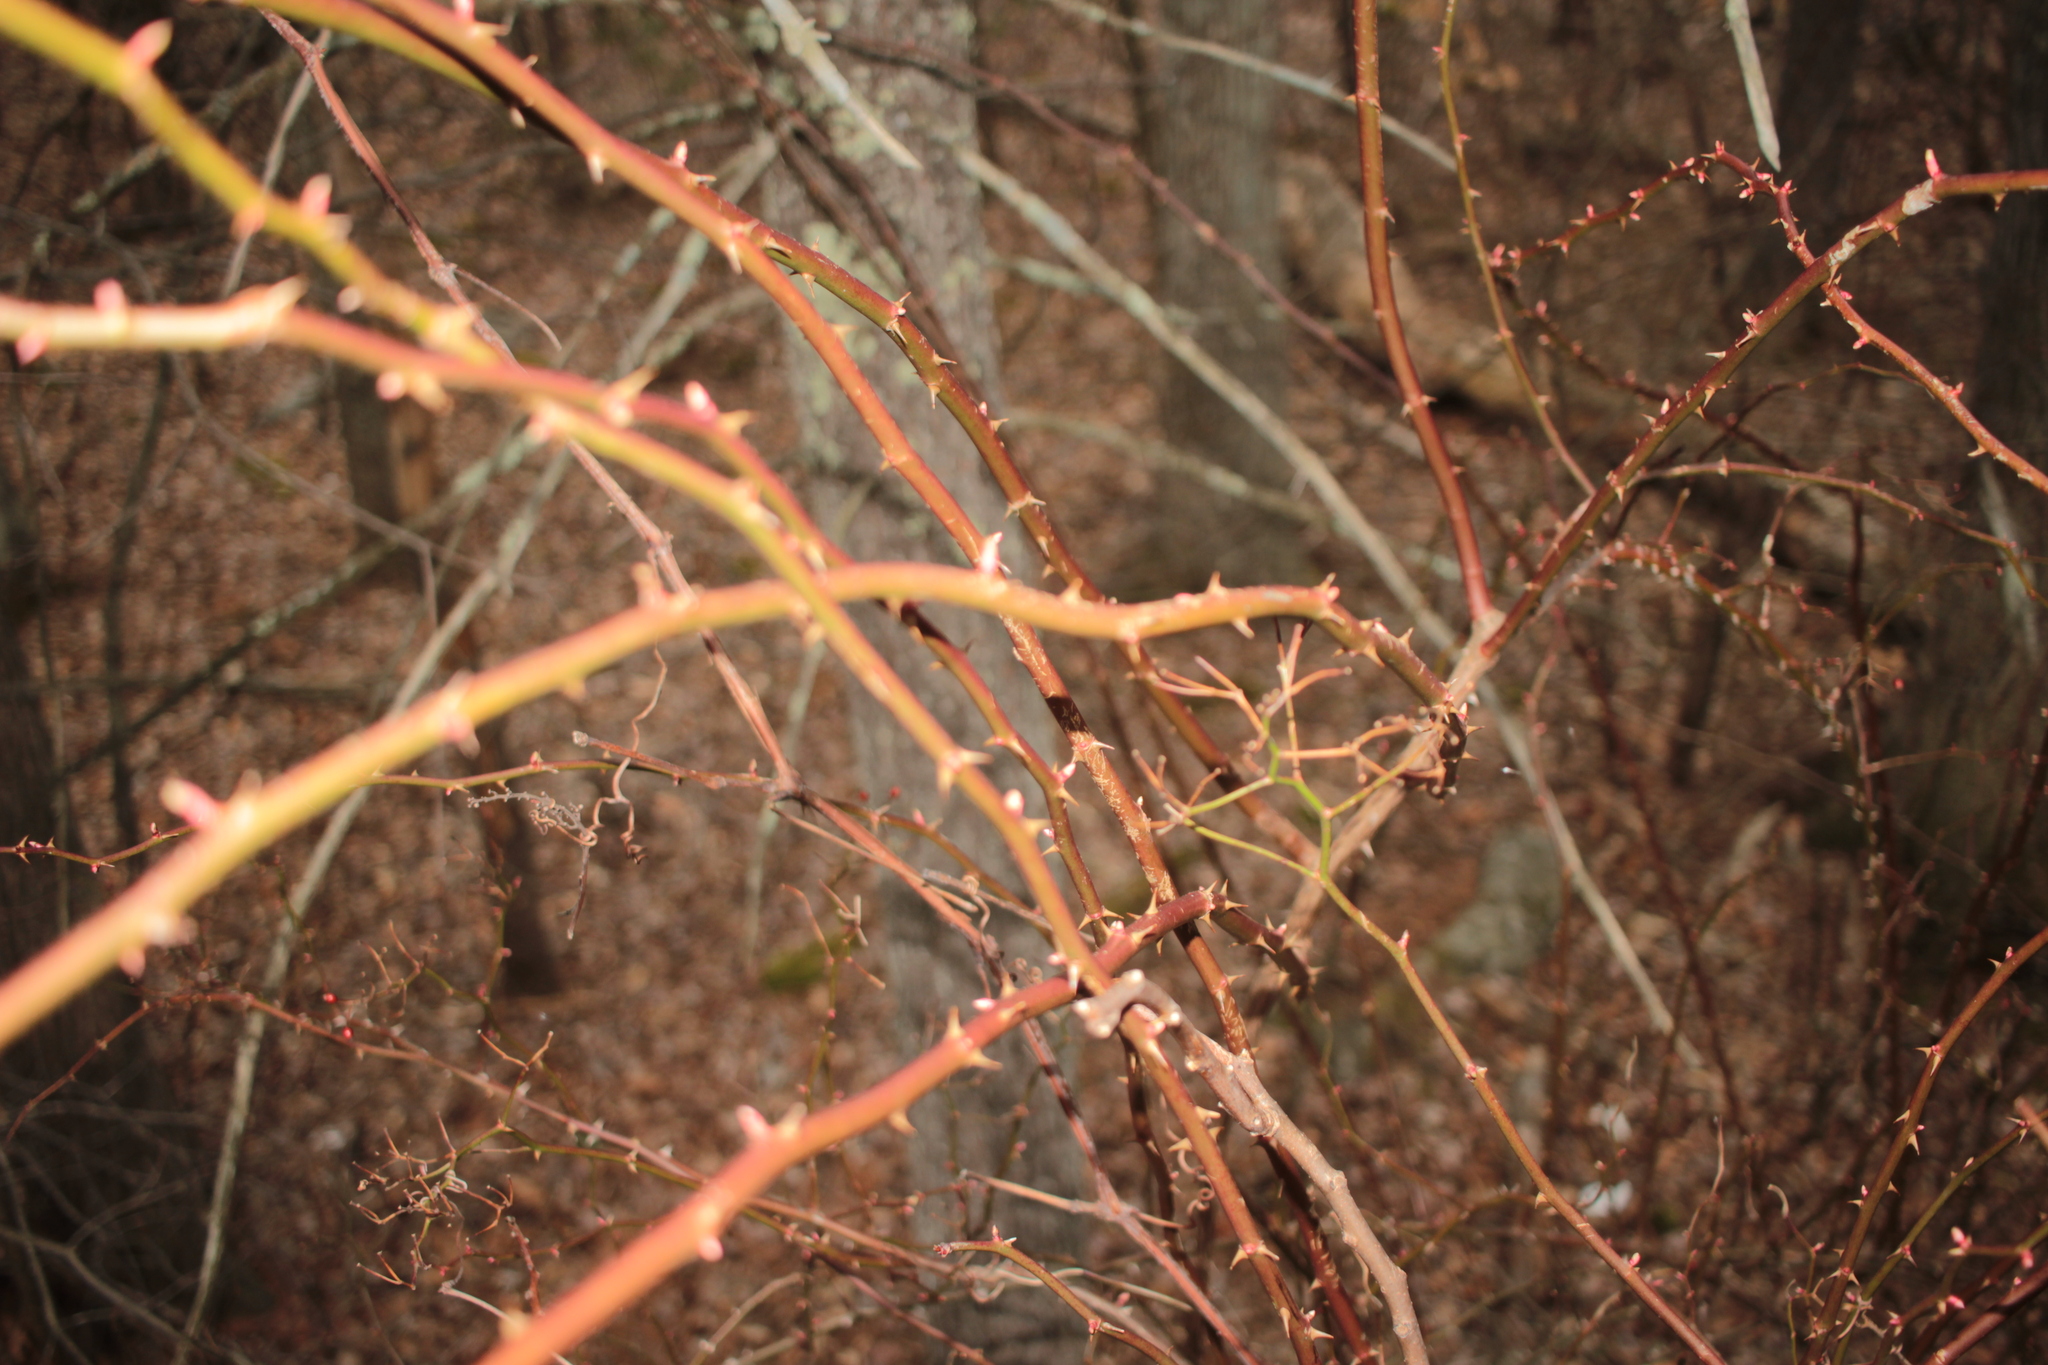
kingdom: Plantae
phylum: Tracheophyta
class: Magnoliopsida
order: Rosales
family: Rosaceae
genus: Rosa
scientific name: Rosa multiflora
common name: Multiflora rose
